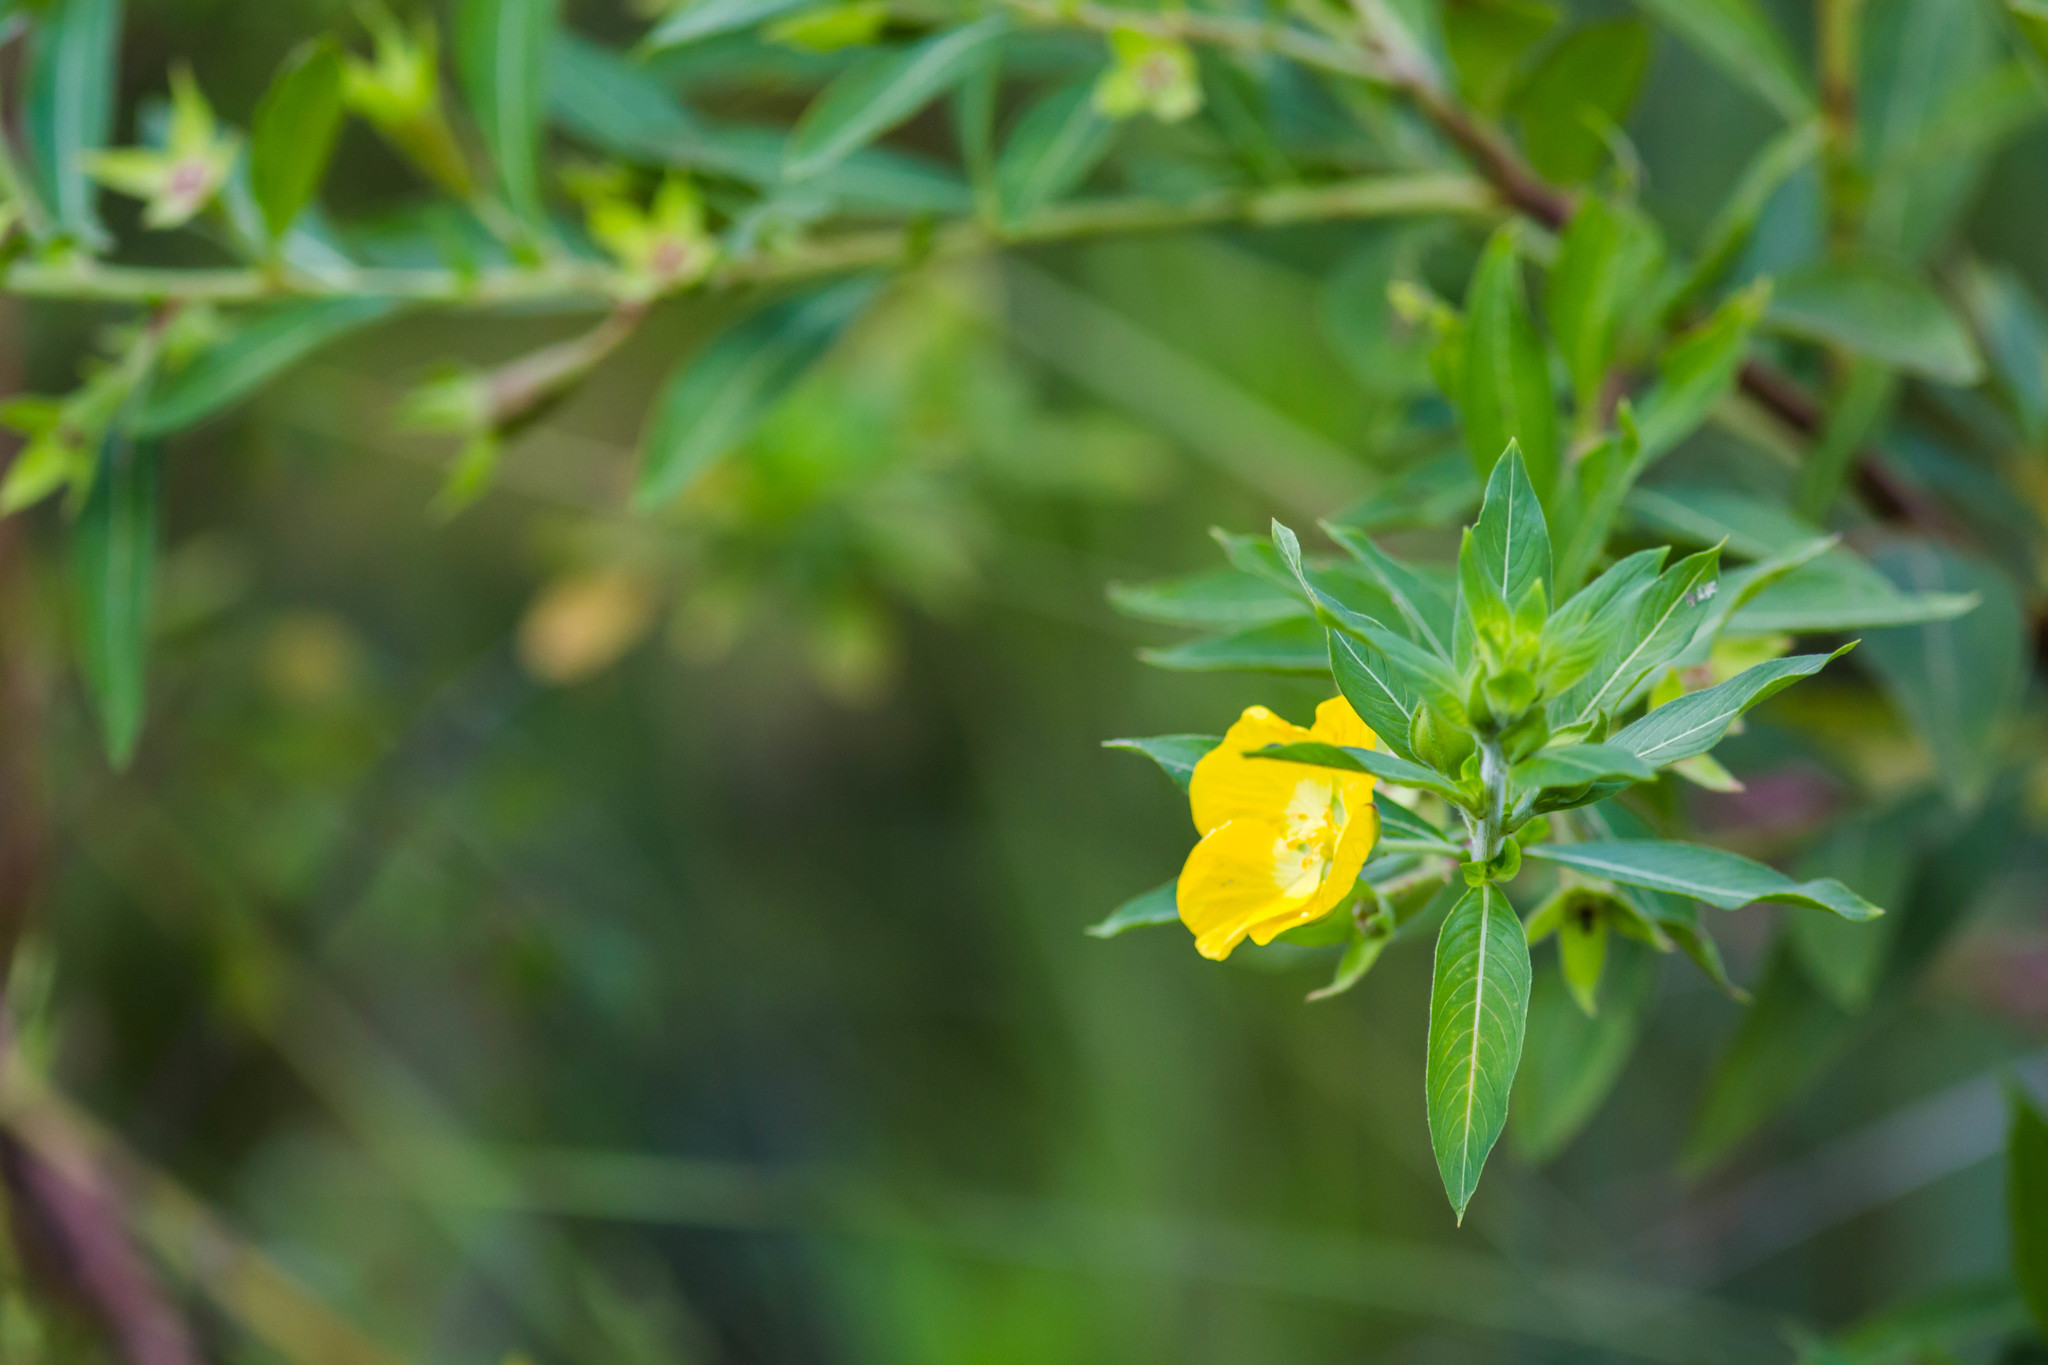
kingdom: Plantae
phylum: Tracheophyta
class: Magnoliopsida
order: Myrtales
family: Onagraceae
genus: Ludwigia
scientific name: Ludwigia peruviana
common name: Peruvian primrose-willow
